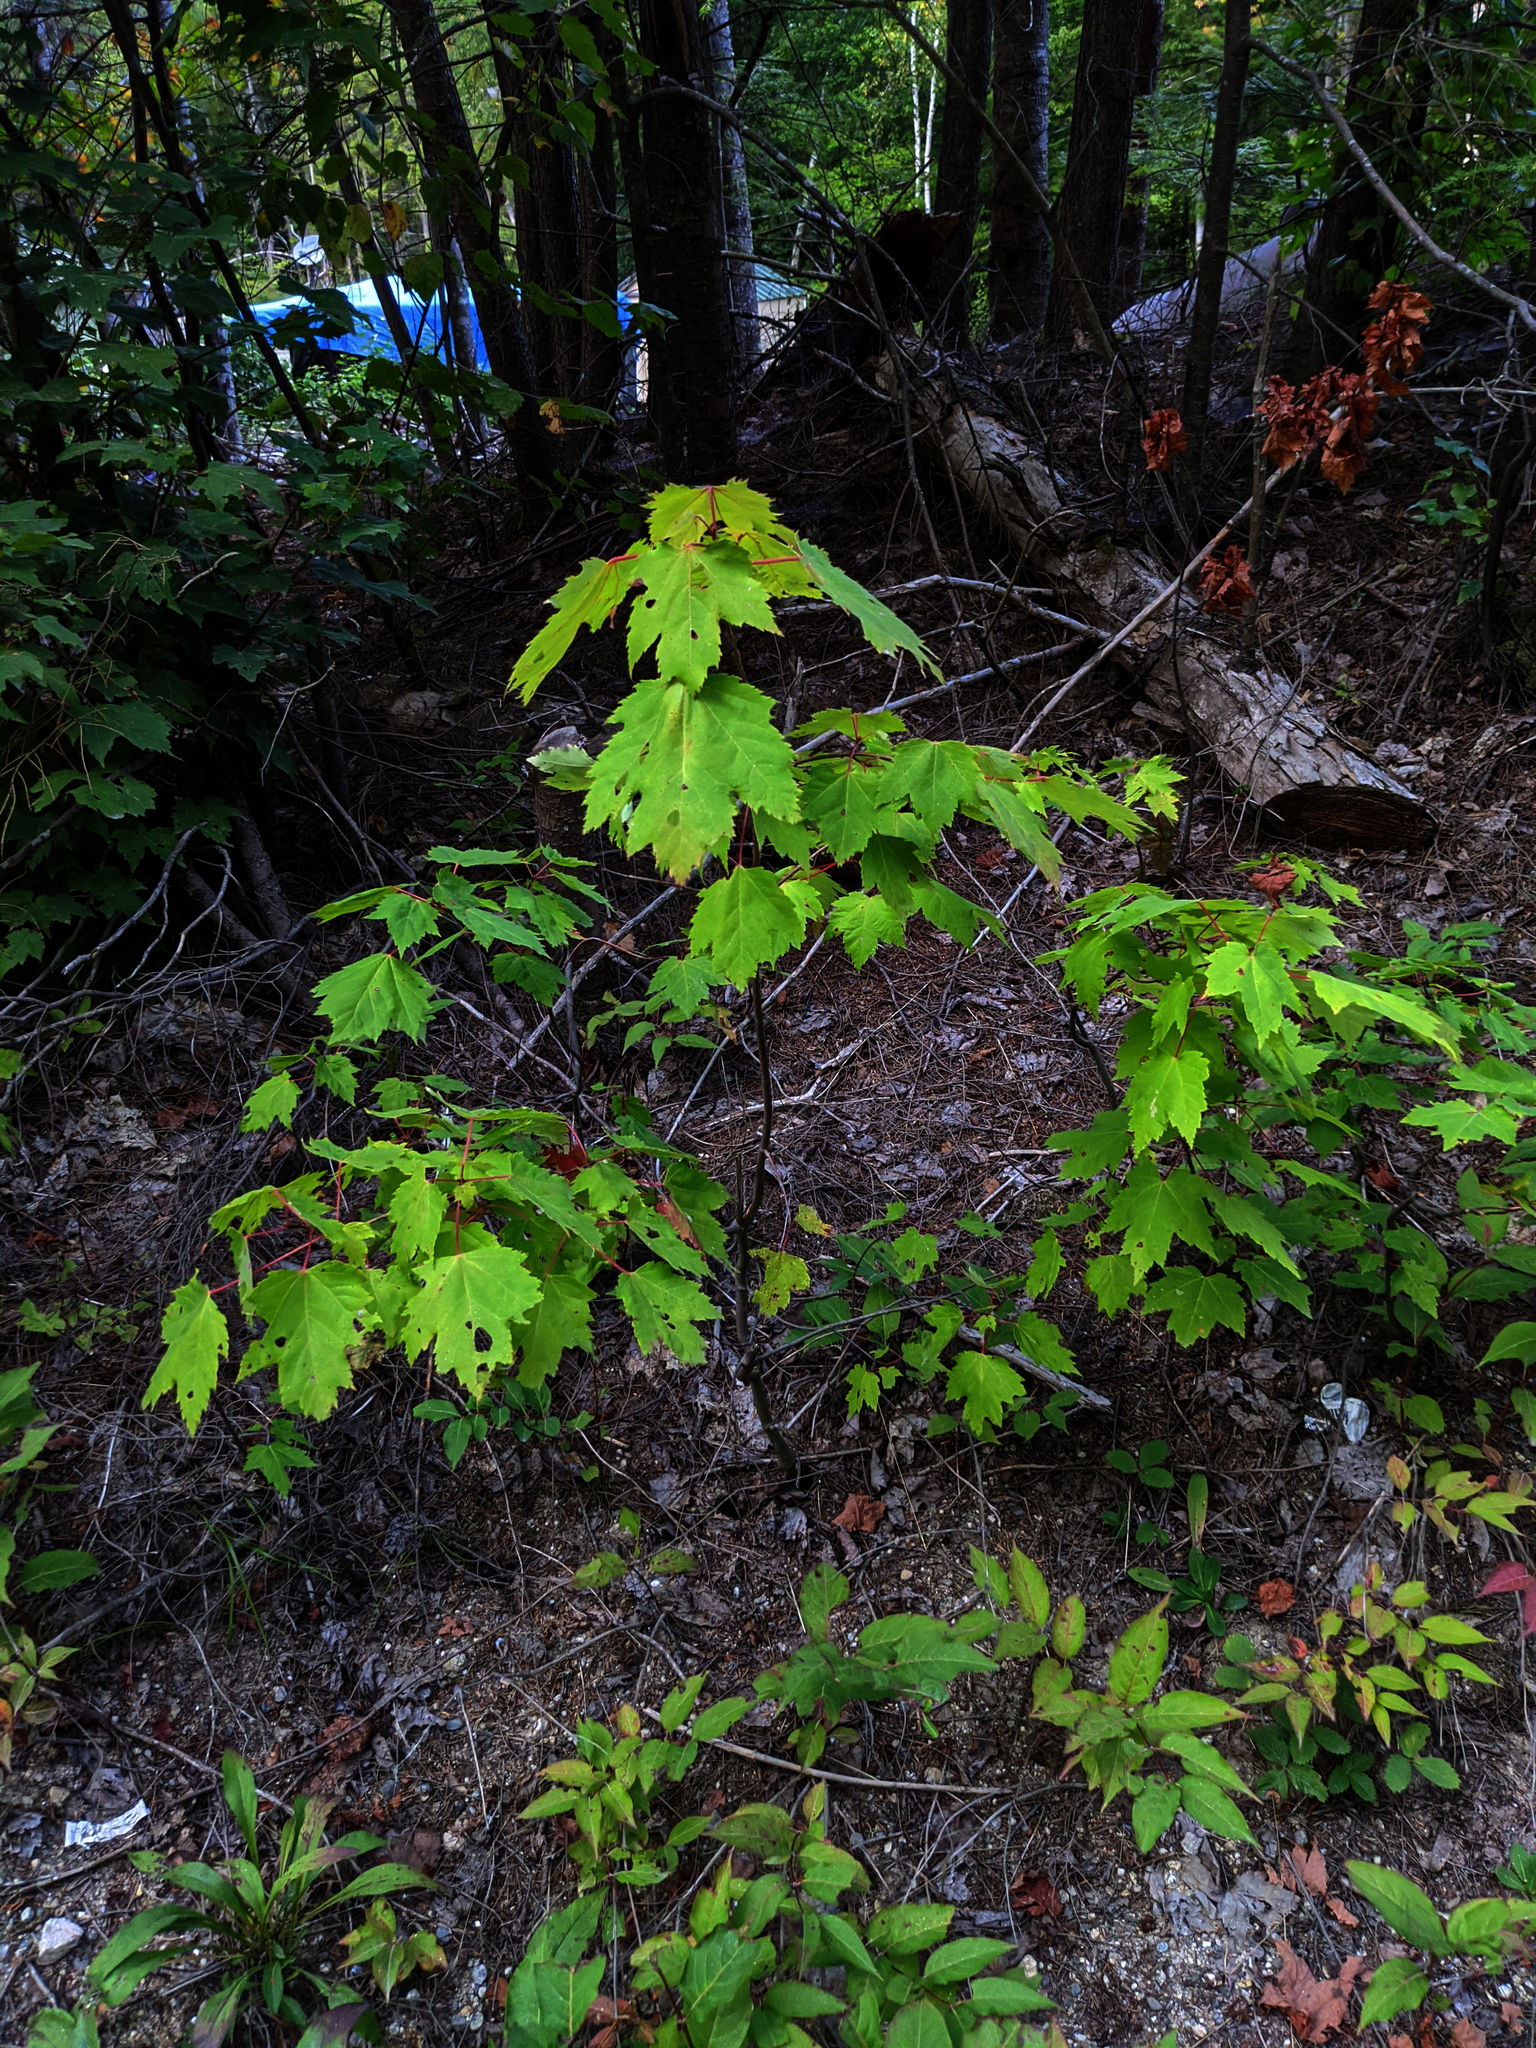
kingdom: Plantae
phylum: Tracheophyta
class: Magnoliopsida
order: Sapindales
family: Sapindaceae
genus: Acer
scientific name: Acer rubrum
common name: Red maple
